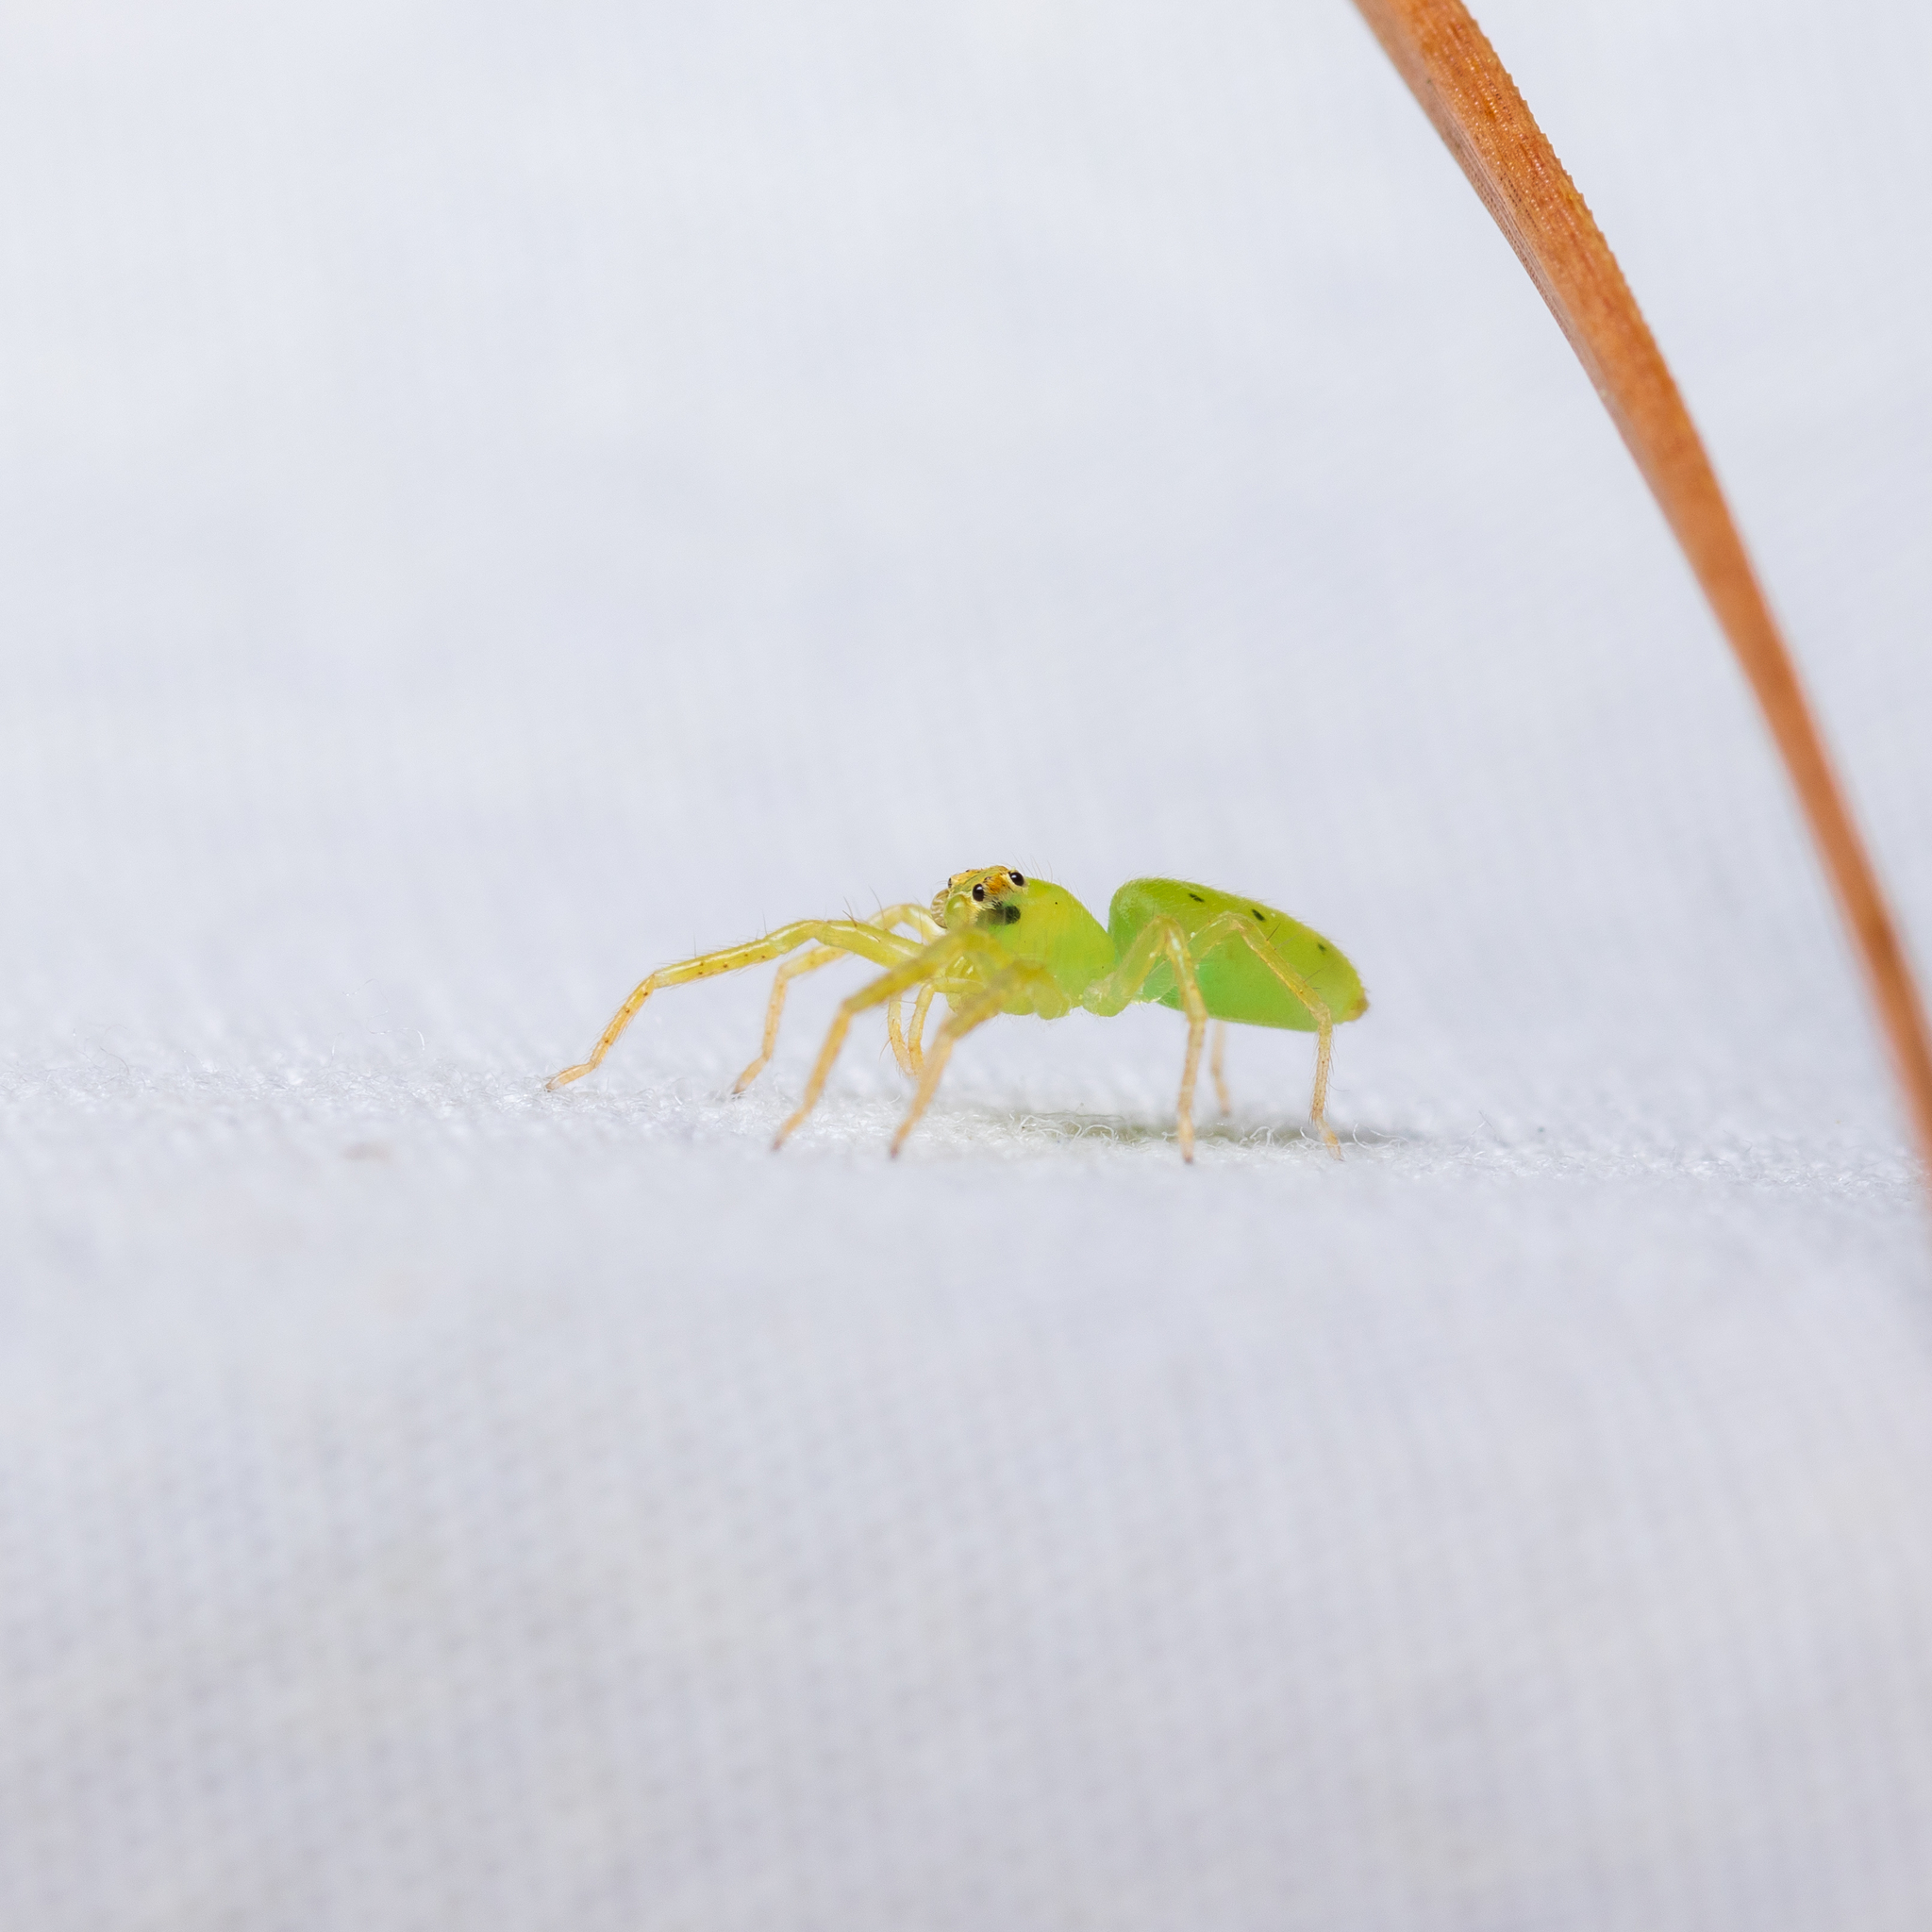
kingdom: Animalia
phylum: Arthropoda
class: Arachnida
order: Araneae
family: Salticidae
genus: Lyssomanes
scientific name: Lyssomanes viridis
